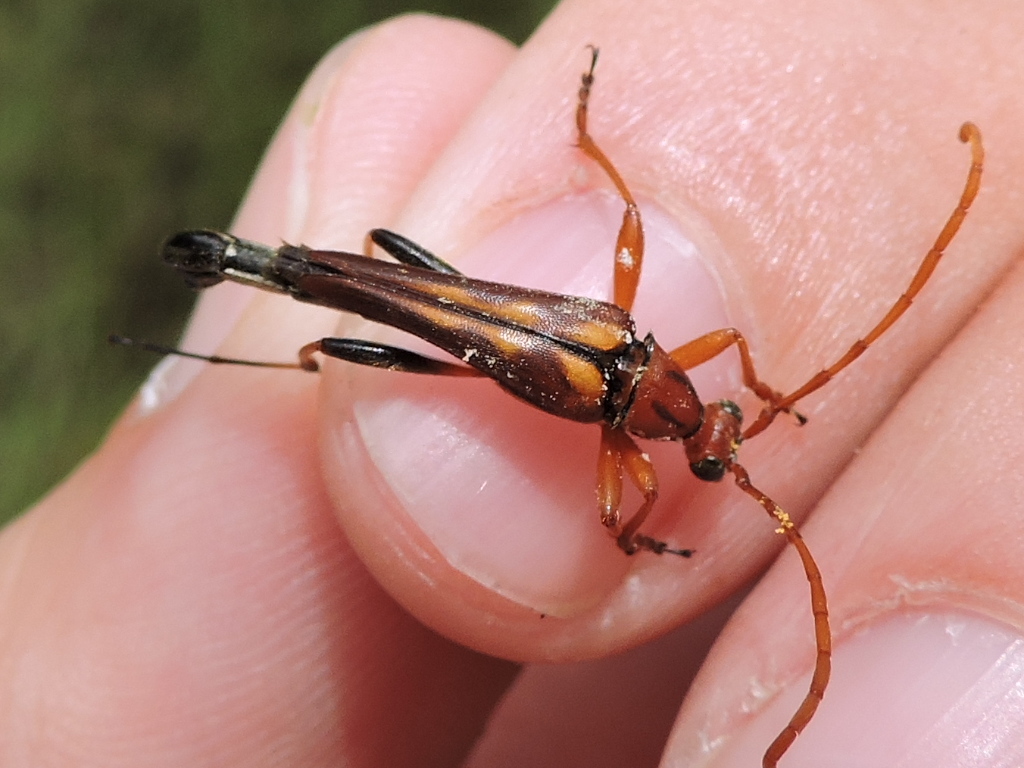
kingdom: Animalia
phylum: Arthropoda
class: Insecta
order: Coleoptera
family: Cerambycidae
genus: Strangalia
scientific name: Strangalia virilis
